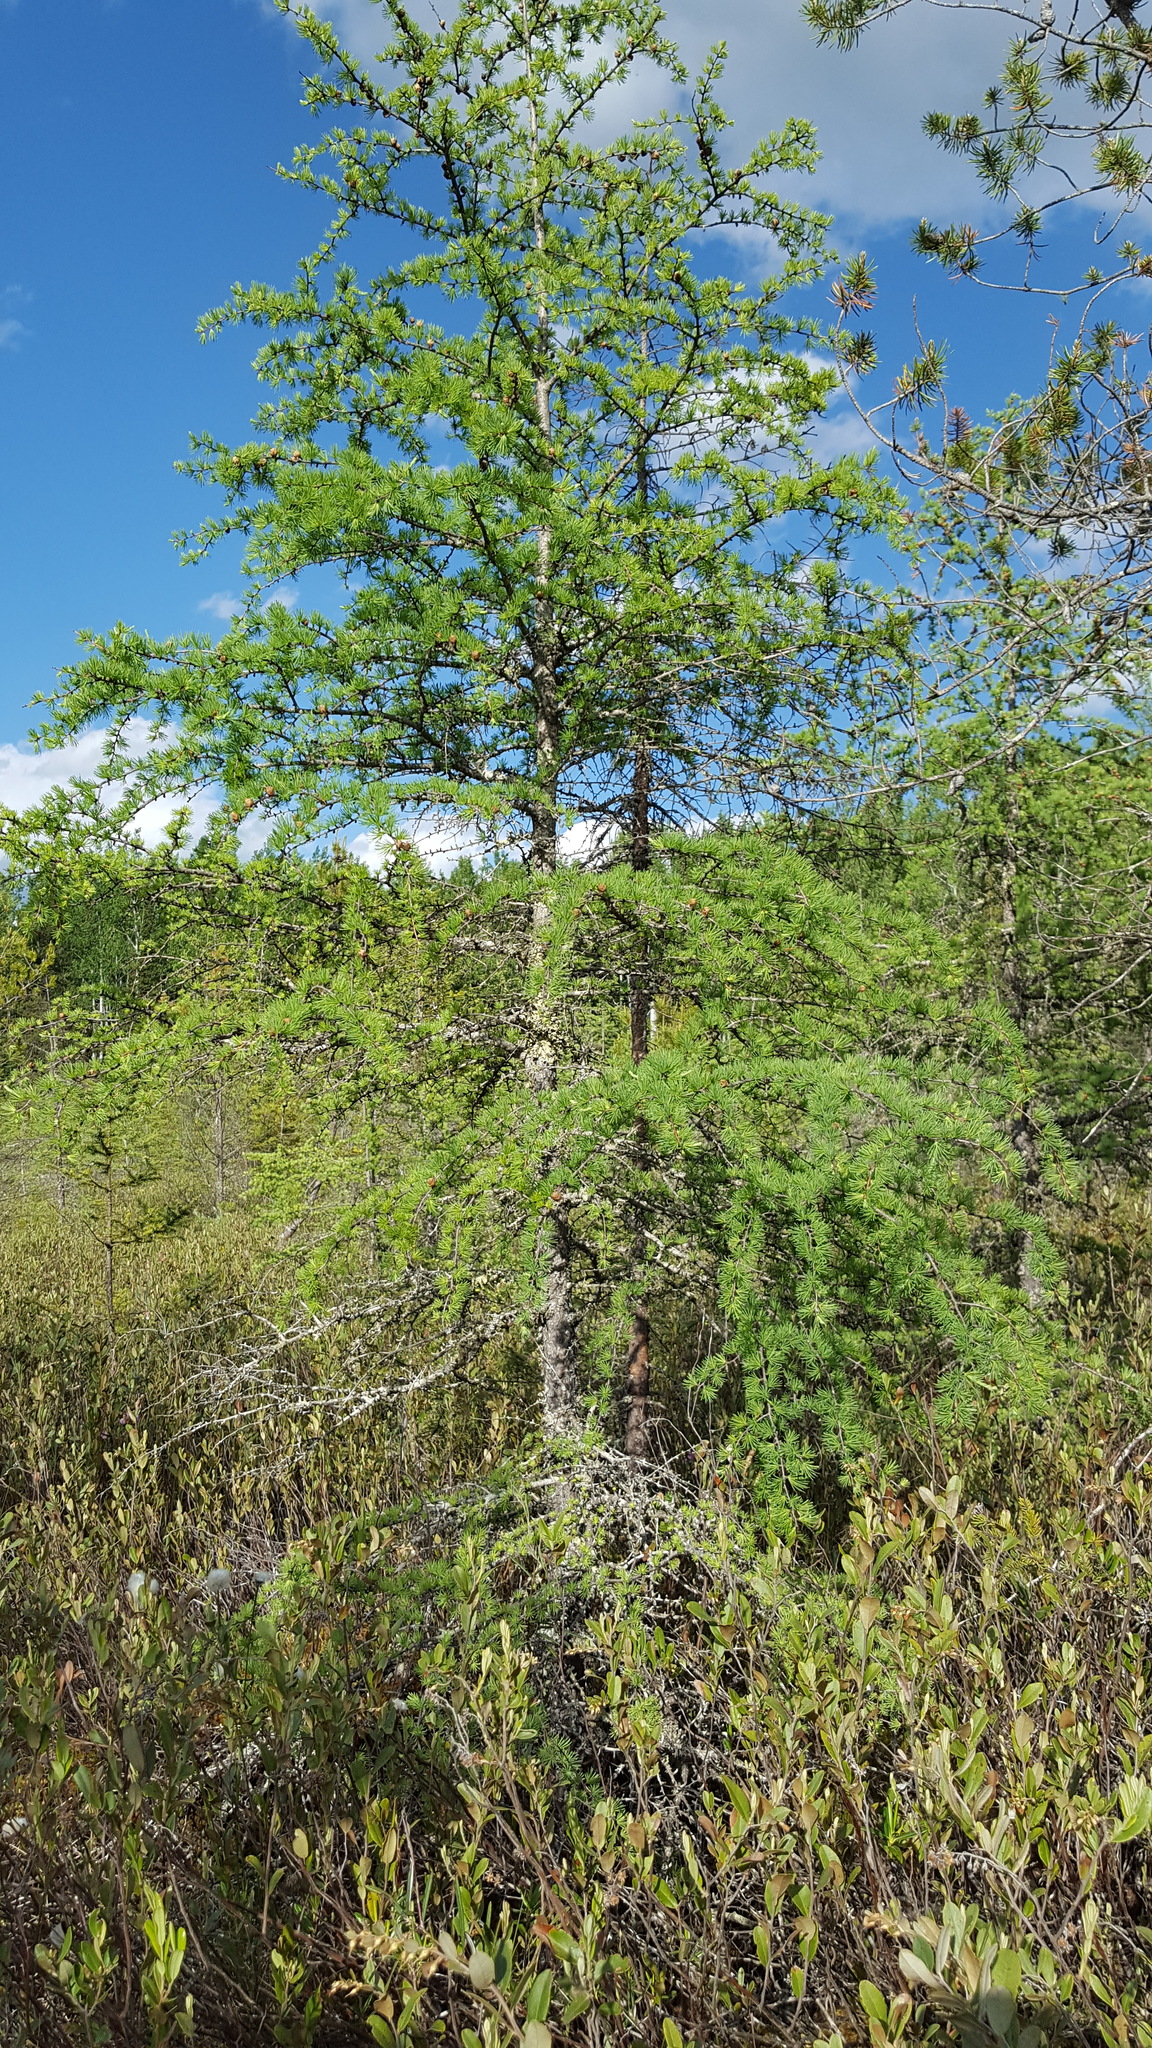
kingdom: Plantae
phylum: Tracheophyta
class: Pinopsida
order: Pinales
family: Pinaceae
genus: Larix
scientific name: Larix laricina
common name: American larch
